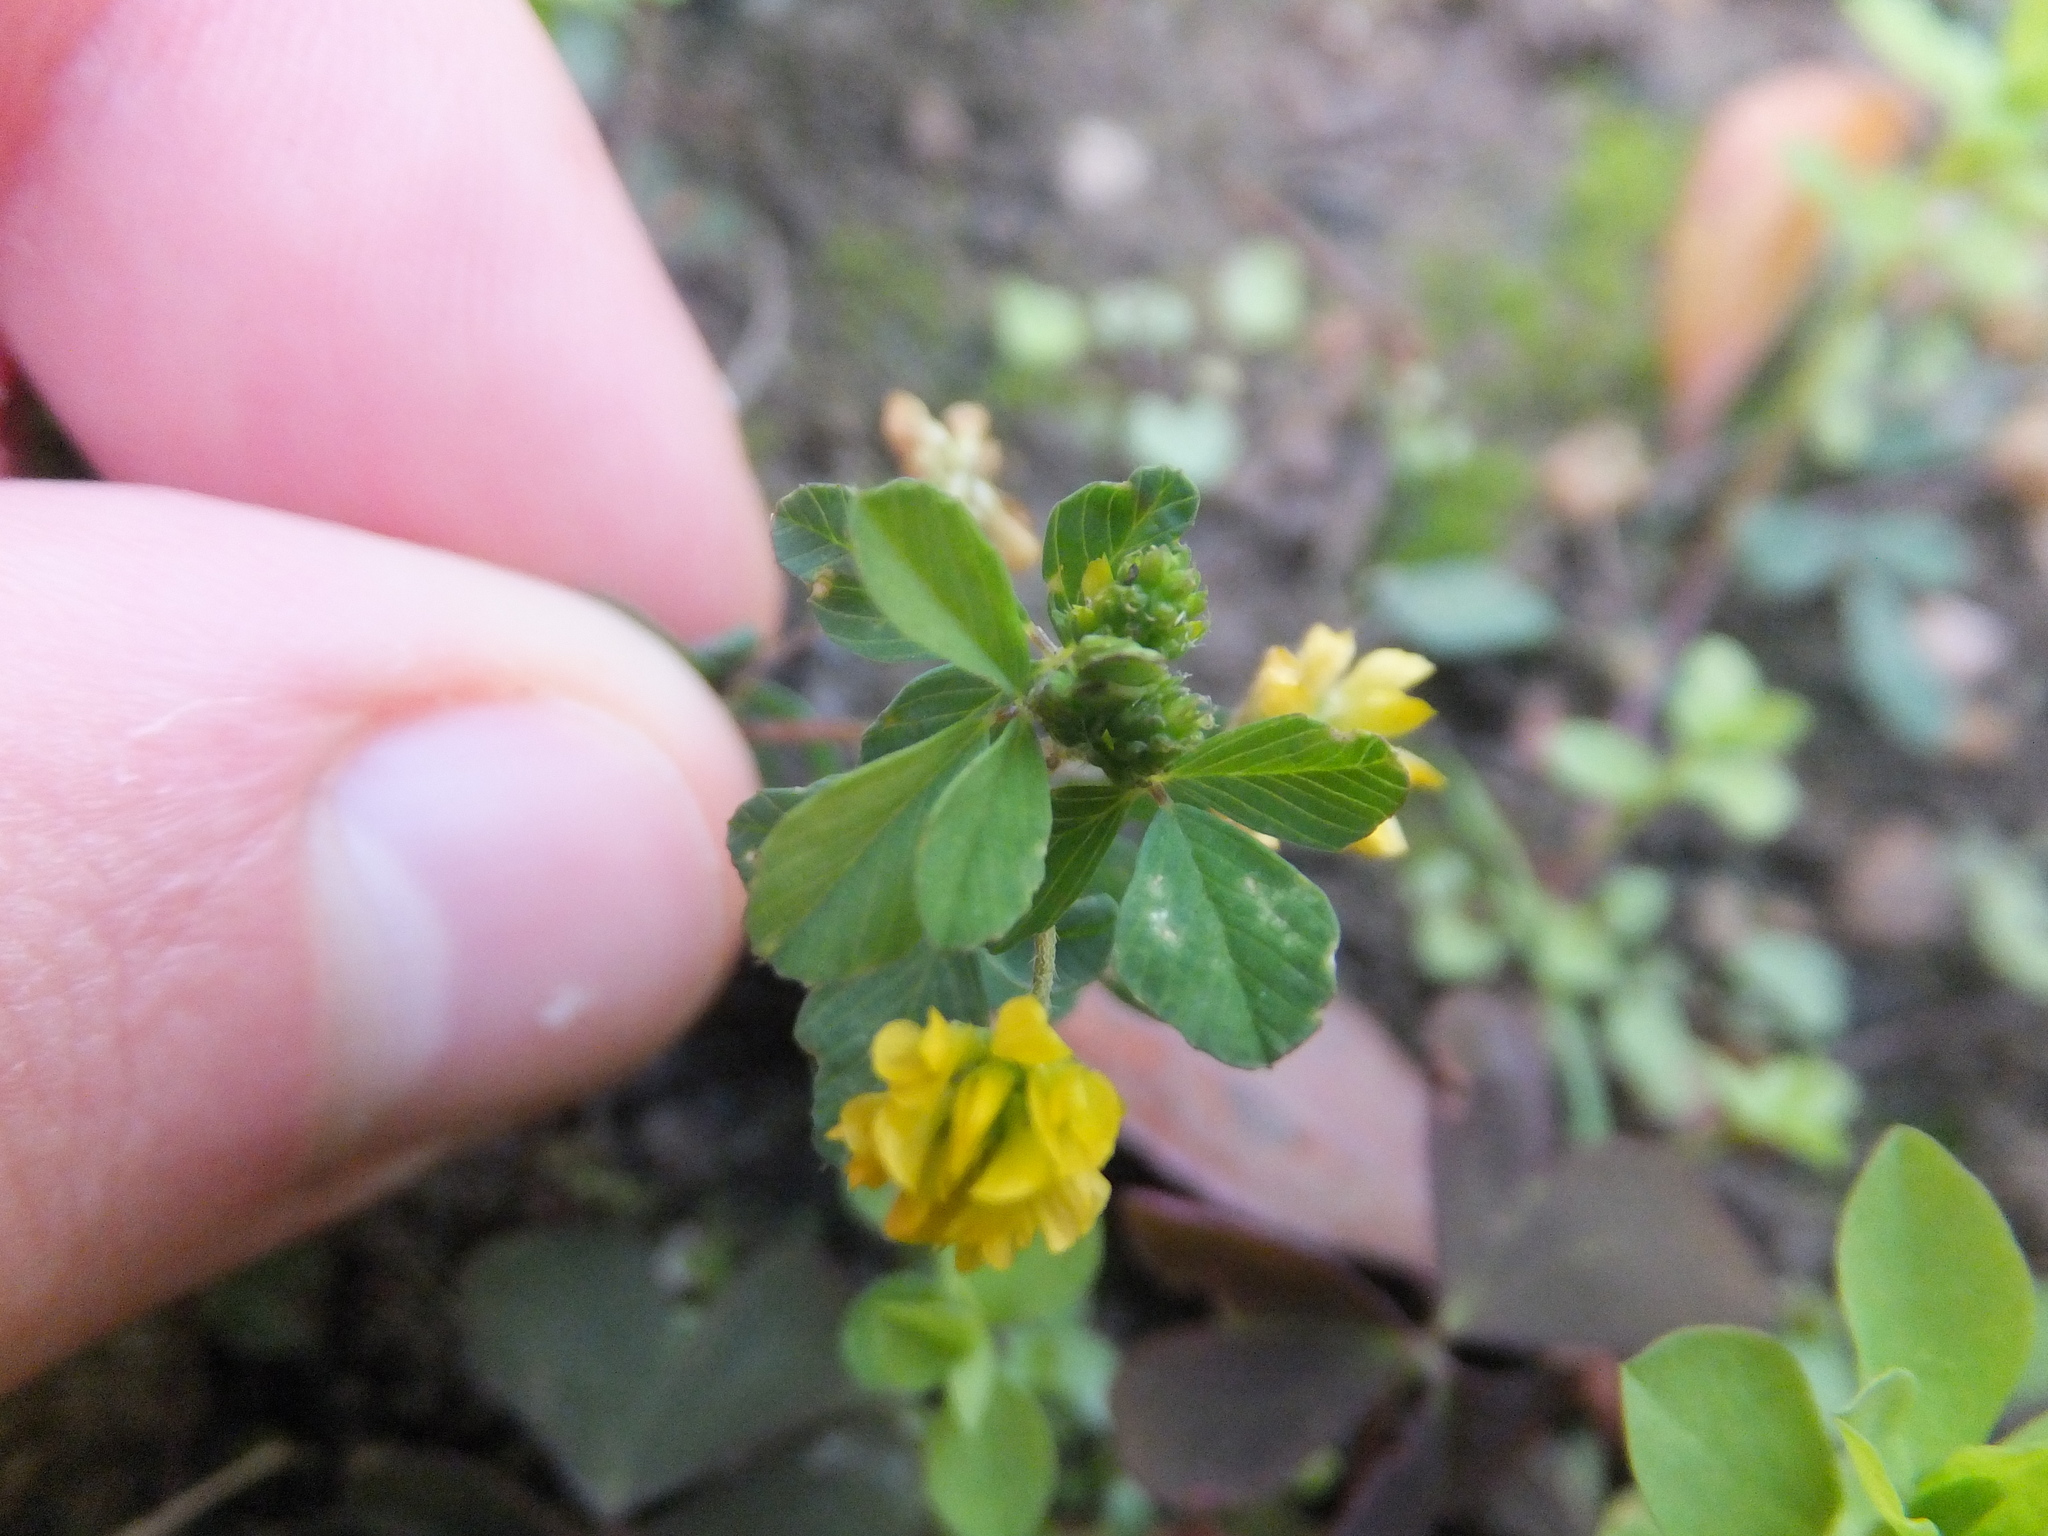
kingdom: Plantae
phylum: Tracheophyta
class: Magnoliopsida
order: Fabales
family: Fabaceae
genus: Trifolium
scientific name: Trifolium dubium
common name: Suckling clover
